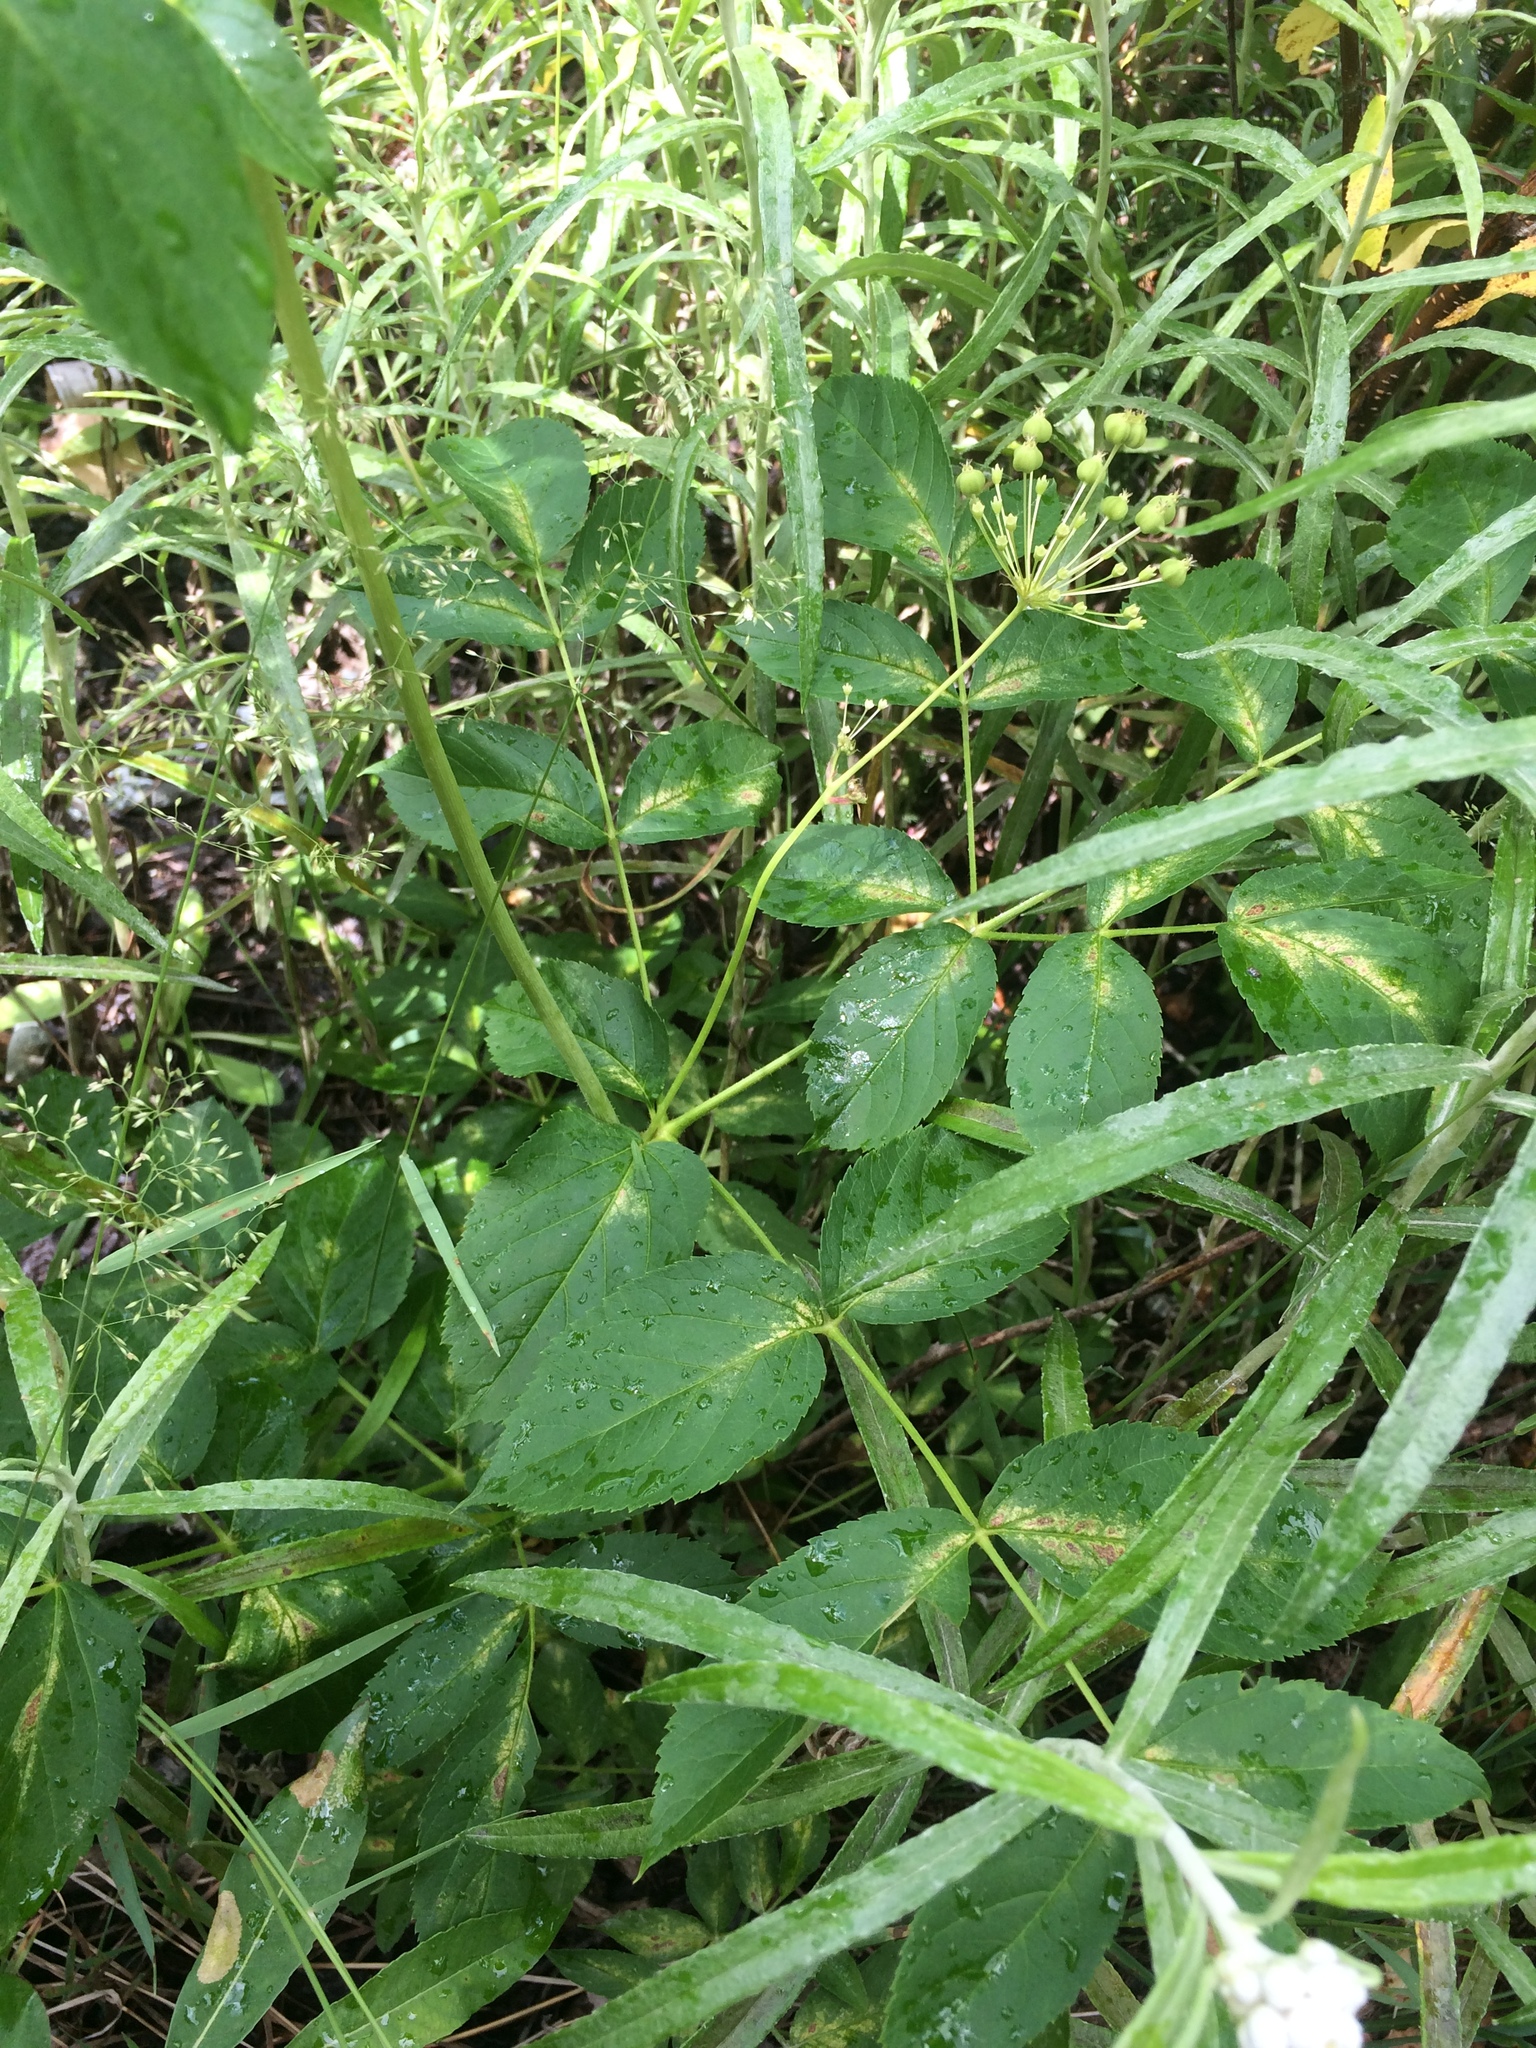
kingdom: Plantae
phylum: Tracheophyta
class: Magnoliopsida
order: Apiales
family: Araliaceae
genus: Aralia
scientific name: Aralia hispida
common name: Bristly sarsaparilla
